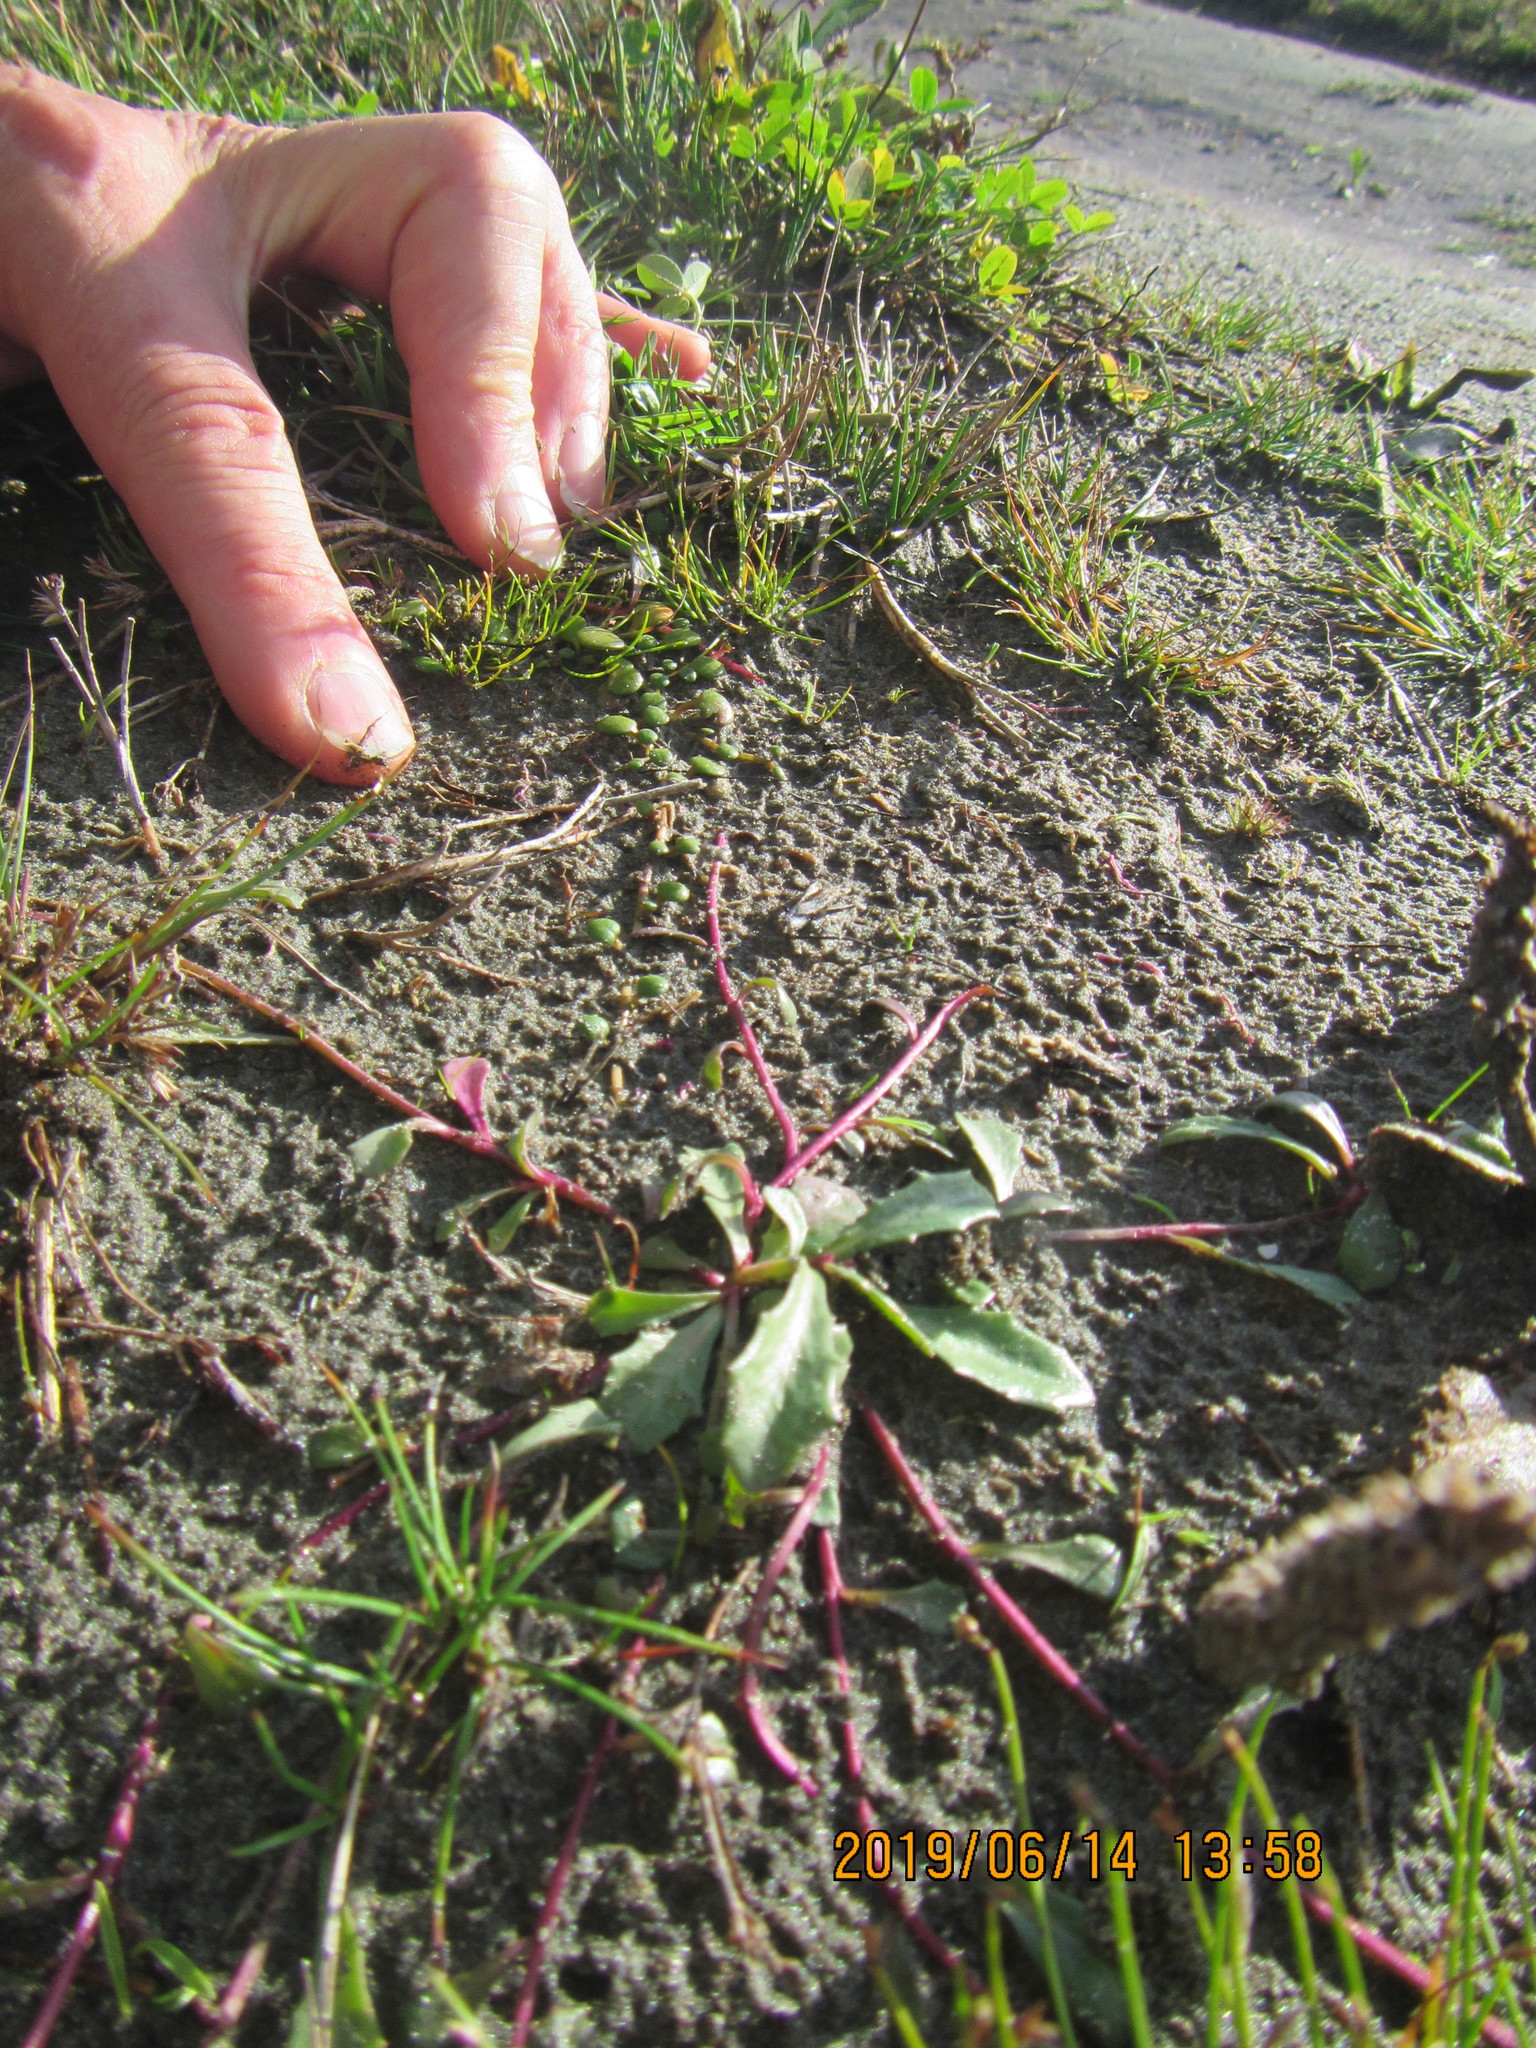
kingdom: Plantae
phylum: Tracheophyta
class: Magnoliopsida
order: Asterales
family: Campanulaceae
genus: Lobelia
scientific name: Lobelia anceps
